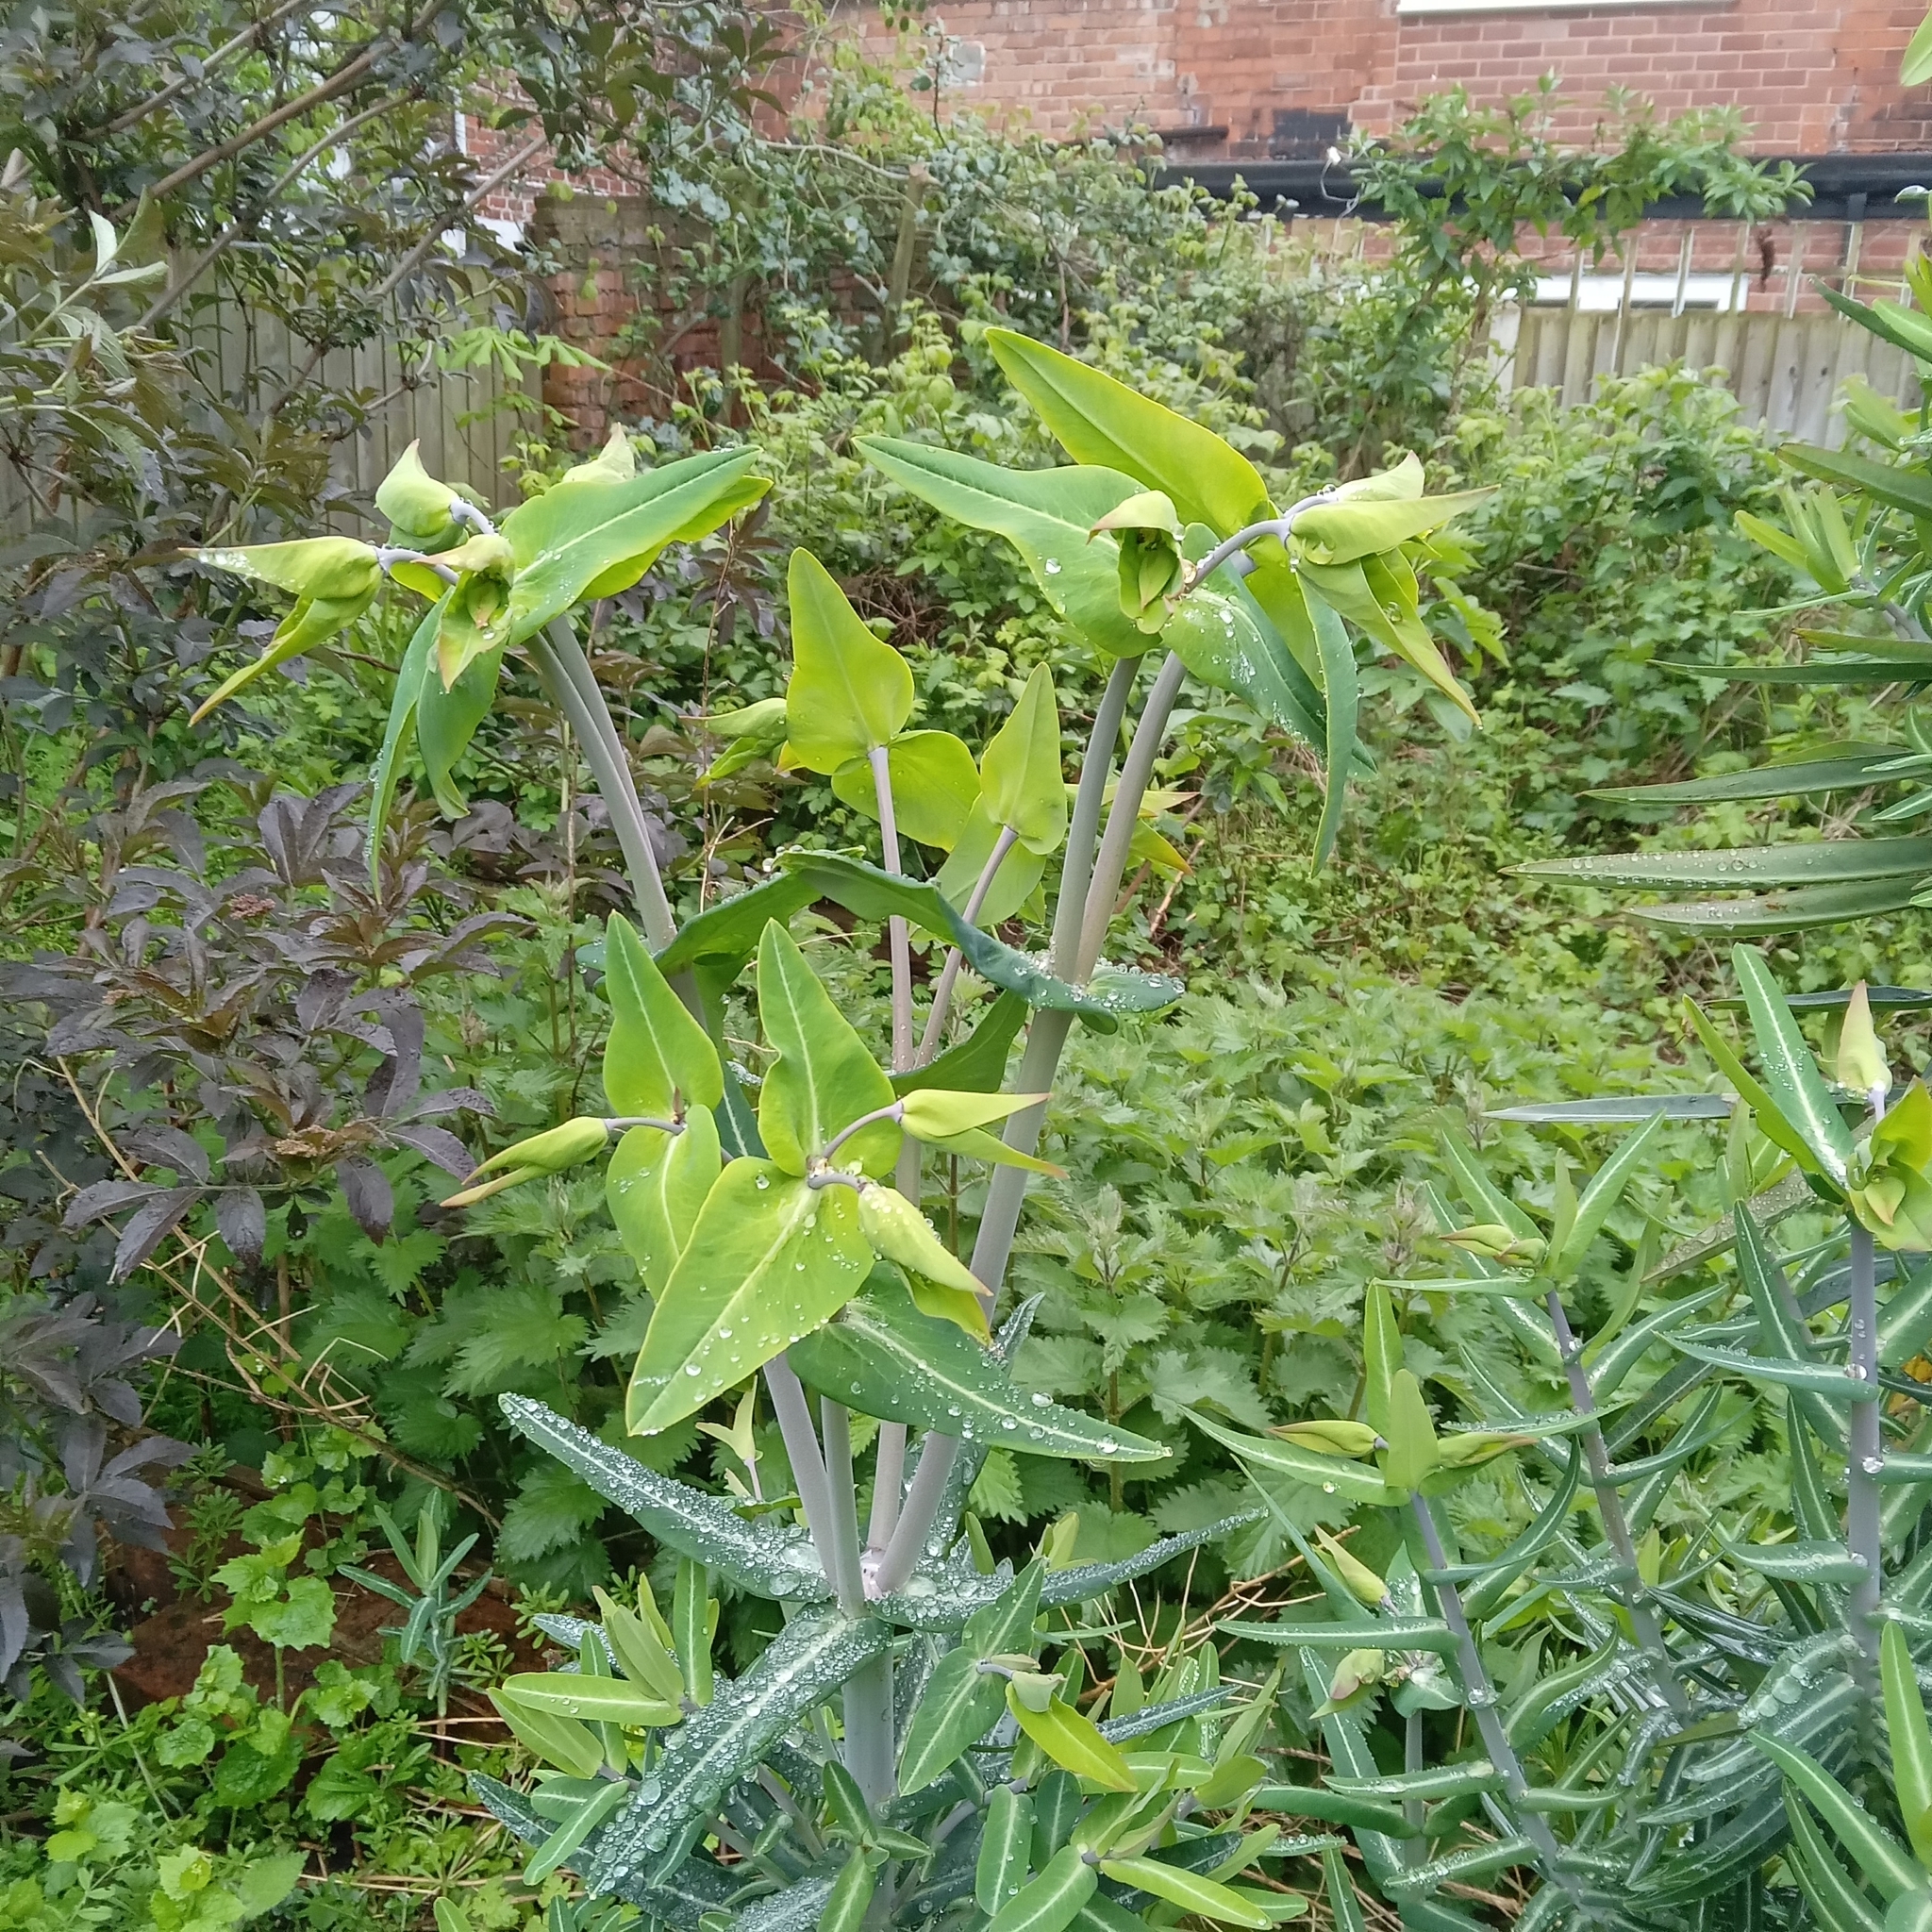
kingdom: Plantae
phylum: Tracheophyta
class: Magnoliopsida
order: Malpighiales
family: Euphorbiaceae
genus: Euphorbia
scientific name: Euphorbia lathyris
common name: Caper spurge
